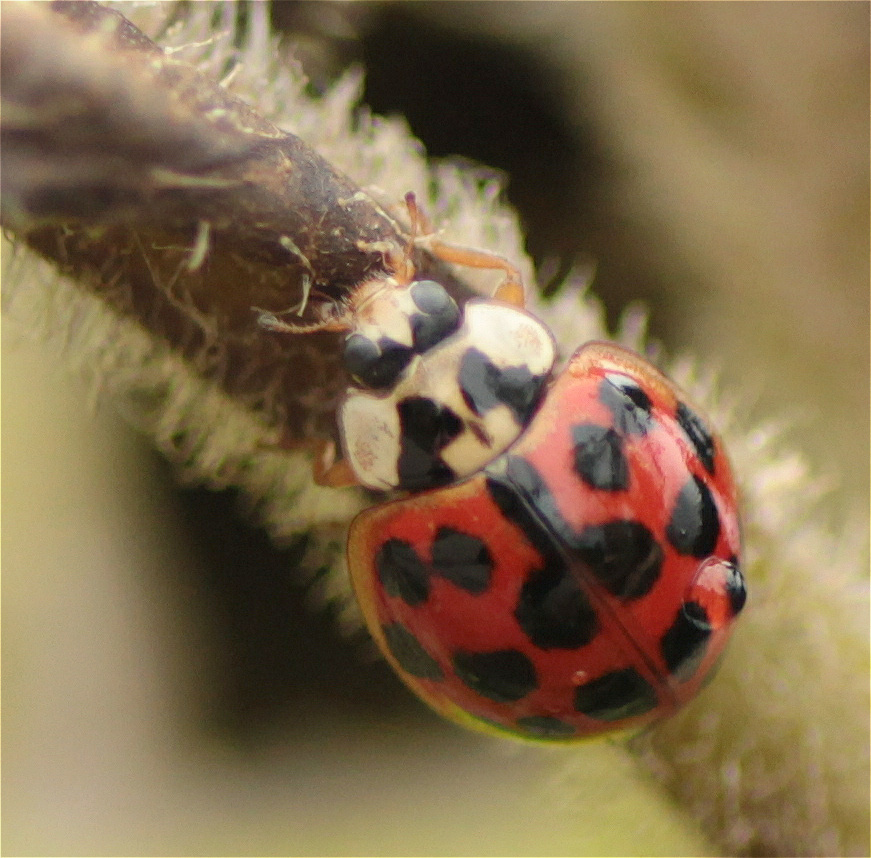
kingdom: Animalia
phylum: Arthropoda
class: Insecta
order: Coleoptera
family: Coccinellidae
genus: Harmonia
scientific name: Harmonia axyridis
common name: Harlequin ladybird
